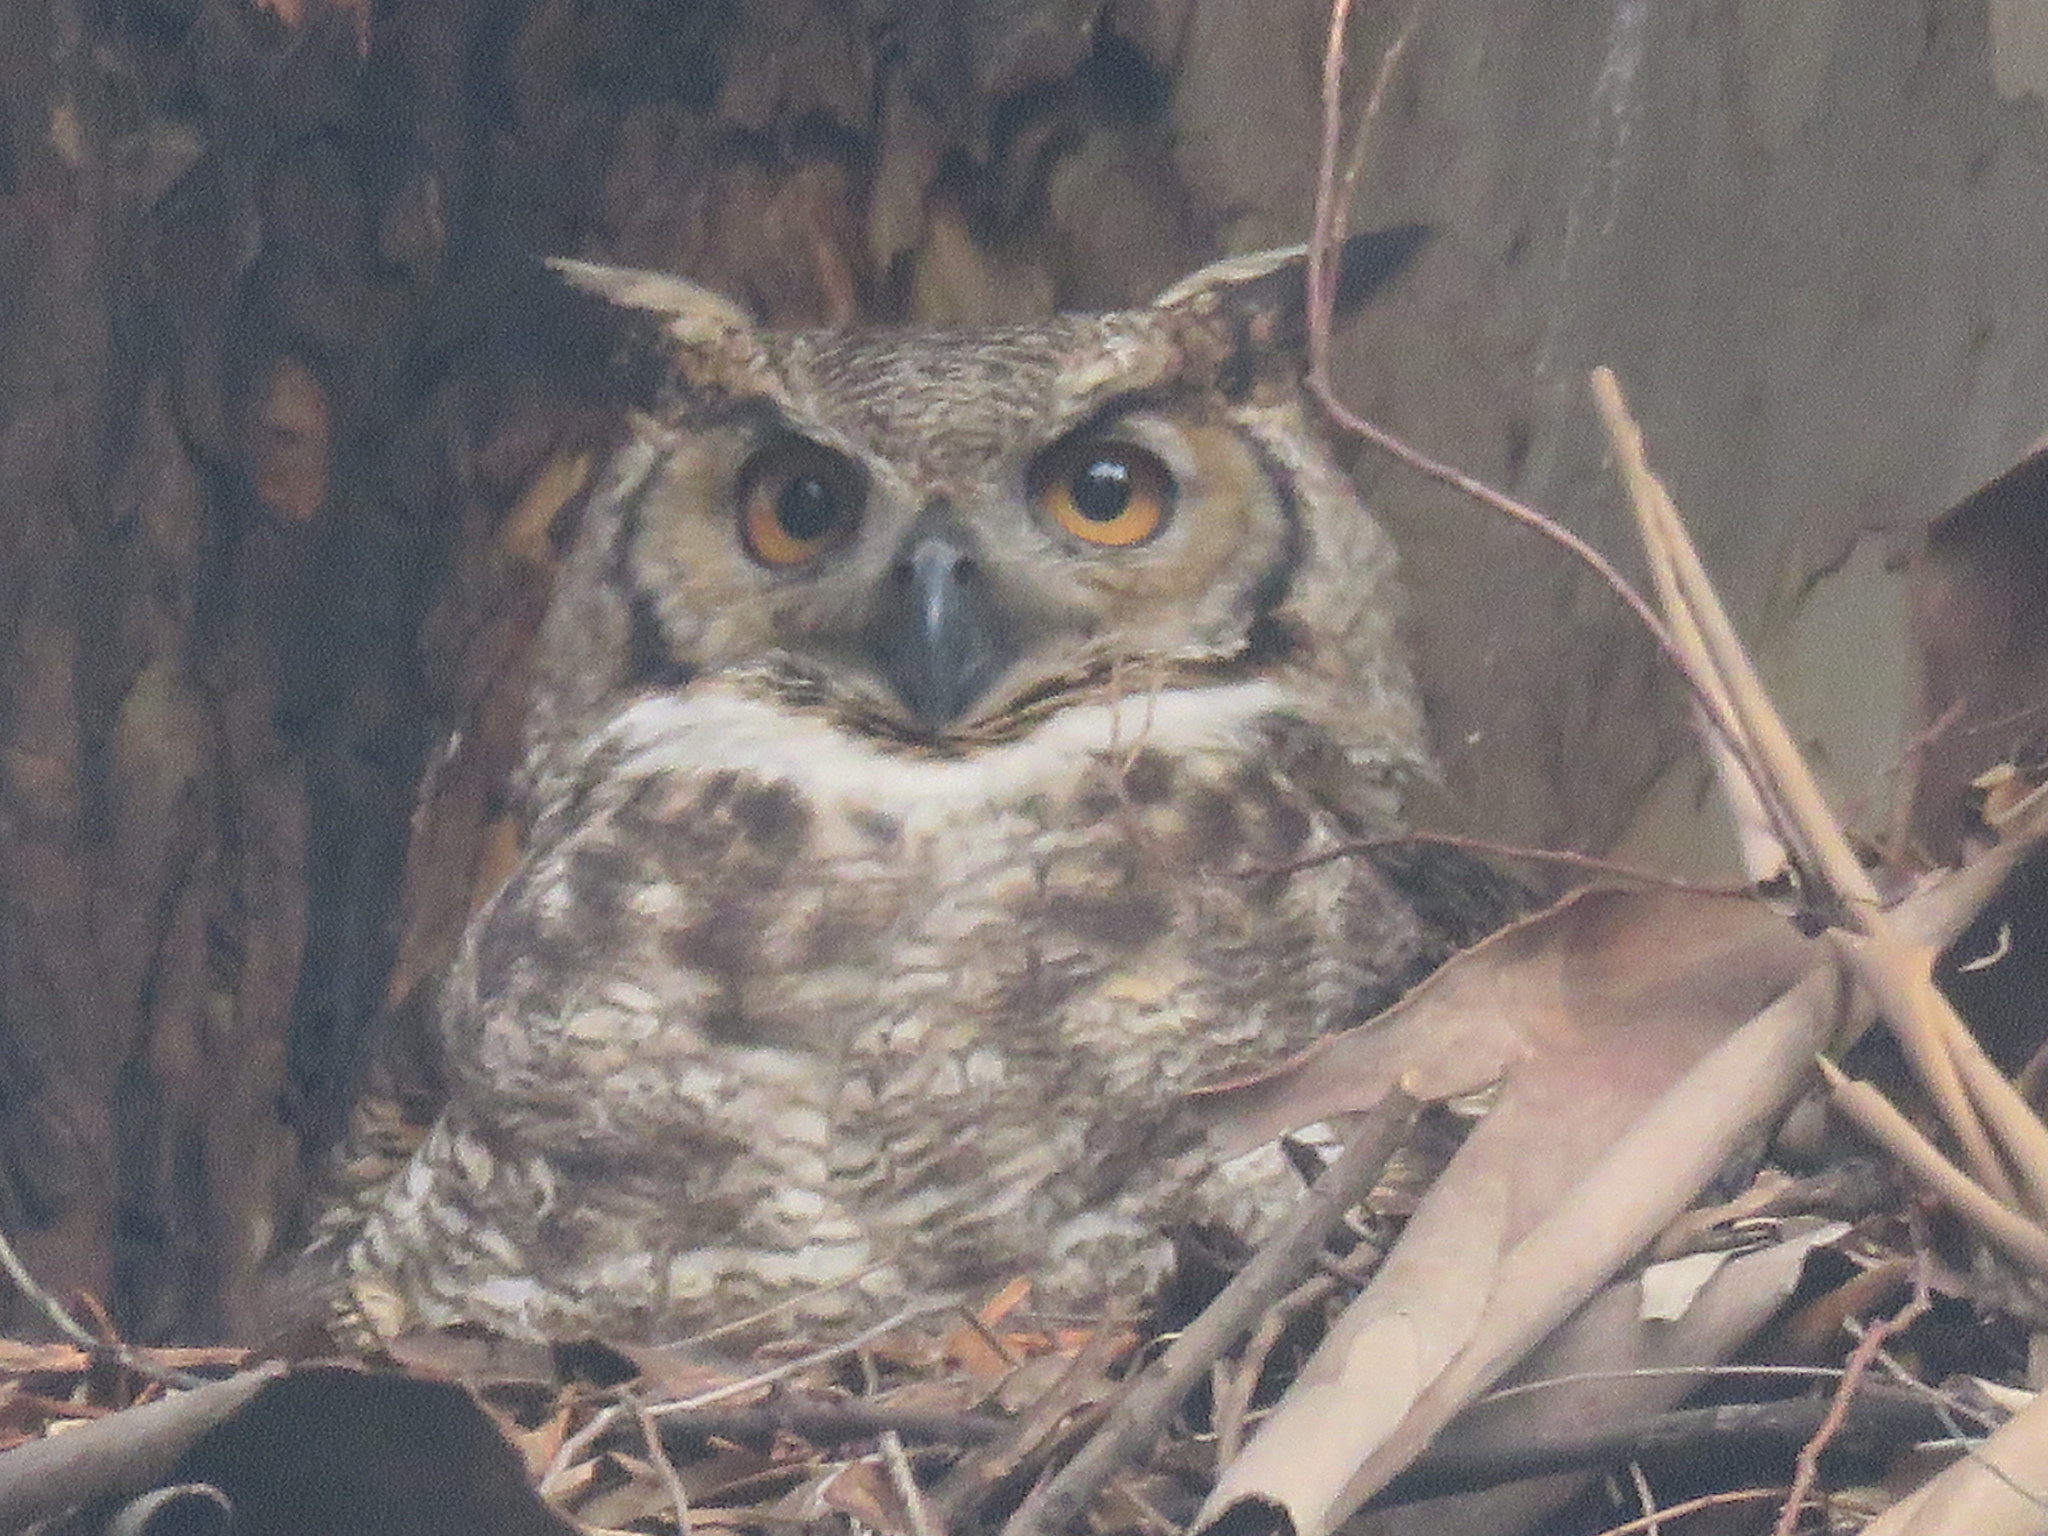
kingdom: Animalia
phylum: Chordata
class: Aves
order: Strigiformes
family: Strigidae
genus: Bubo
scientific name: Bubo virginianus
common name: Great horned owl
